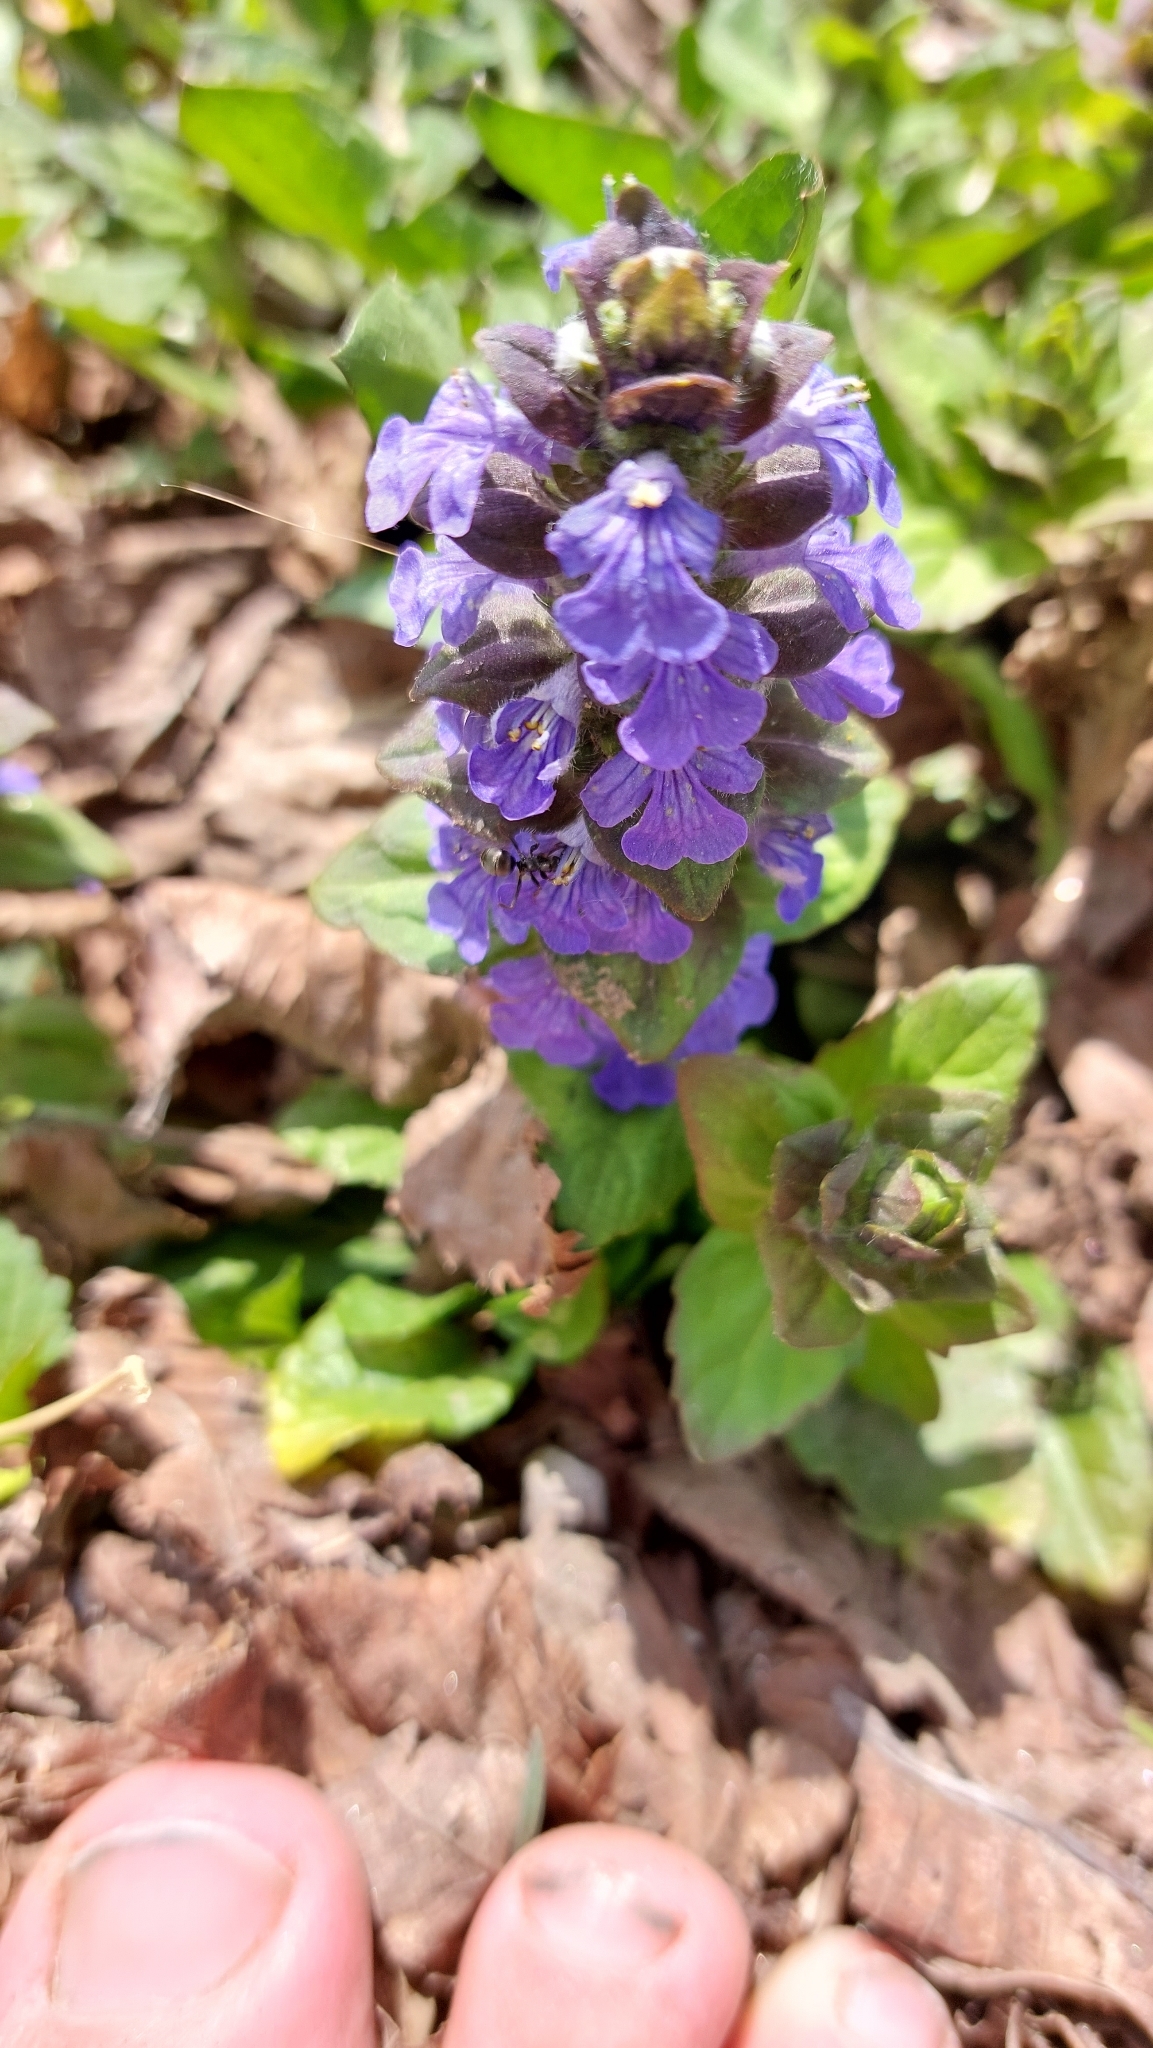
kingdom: Plantae
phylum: Tracheophyta
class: Magnoliopsida
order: Lamiales
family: Lamiaceae
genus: Ajuga
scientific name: Ajuga reptans
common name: Bugle
